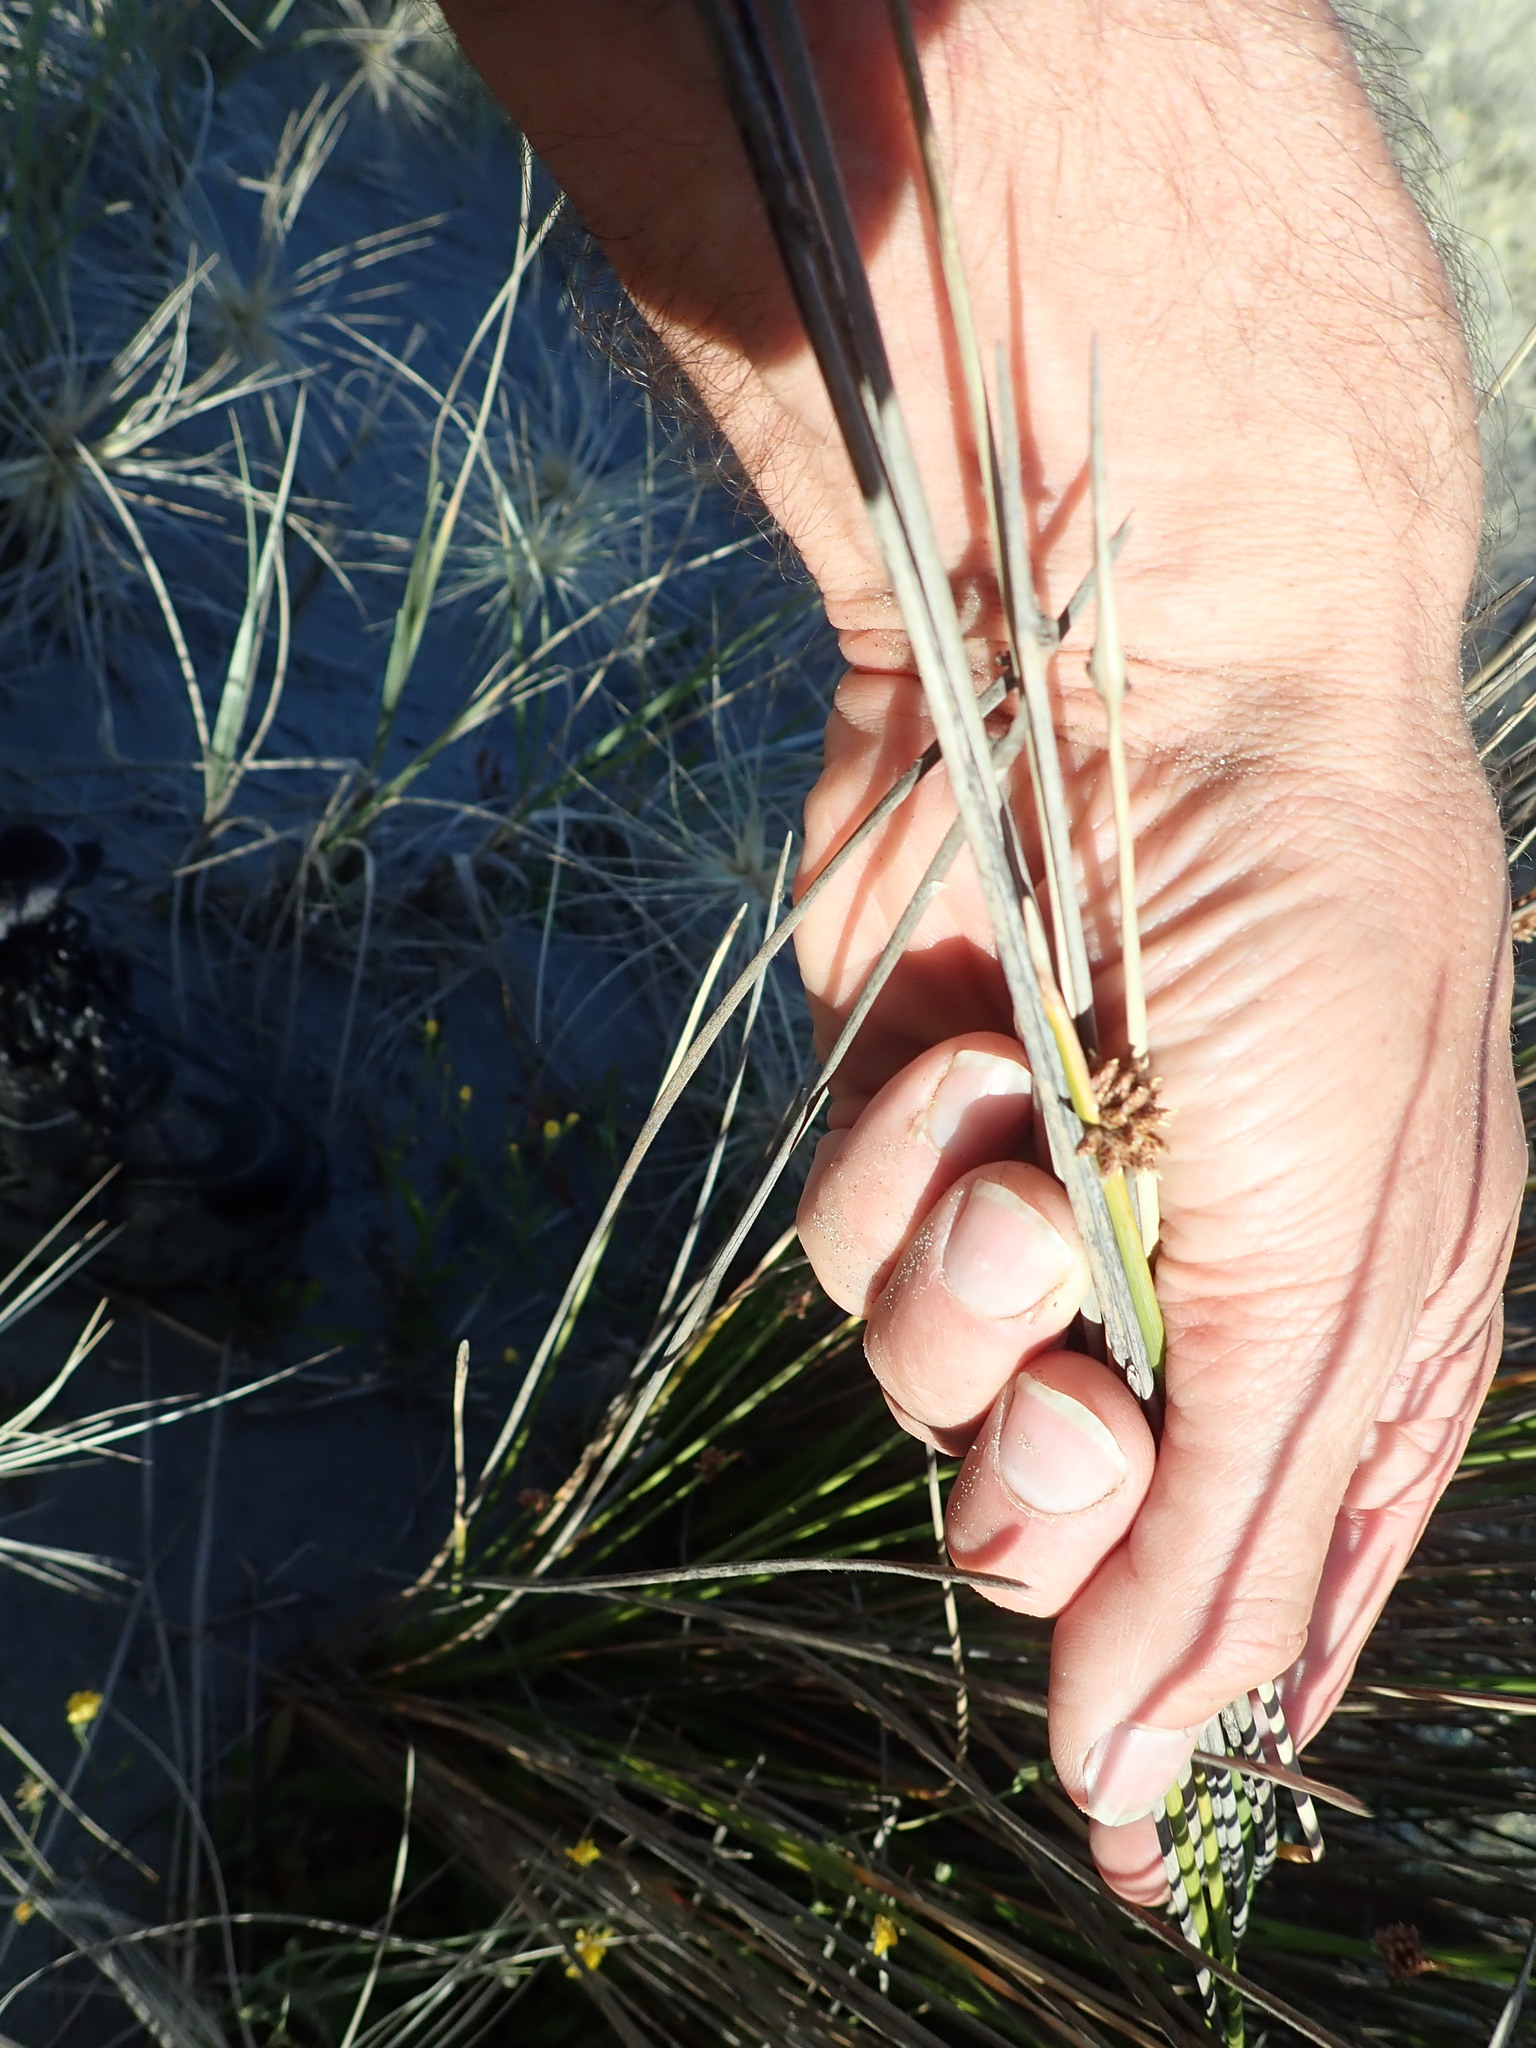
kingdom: Plantae
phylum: Tracheophyta
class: Liliopsida
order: Poales
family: Cyperaceae
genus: Ficinia
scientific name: Ficinia nodosa
